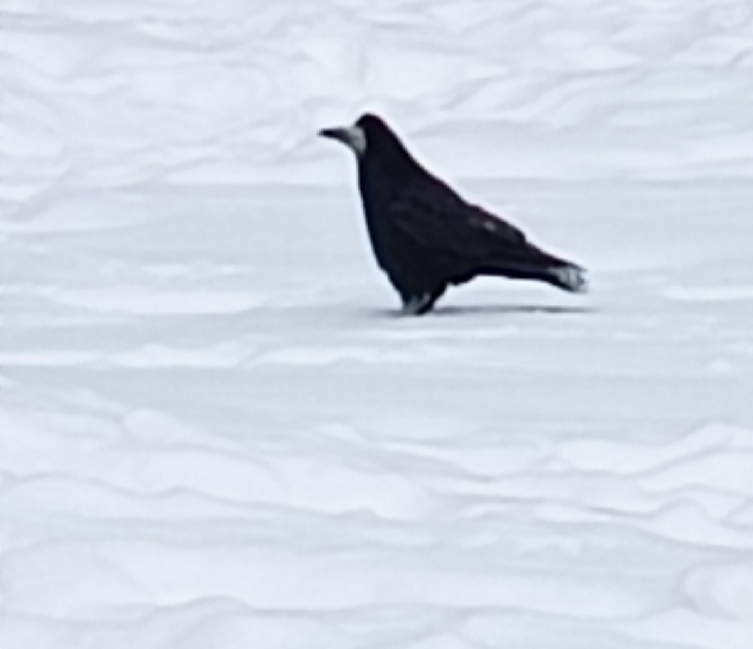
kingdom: Animalia
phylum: Chordata
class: Aves
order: Passeriformes
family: Corvidae
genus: Corvus
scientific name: Corvus frugilegus
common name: Rook
